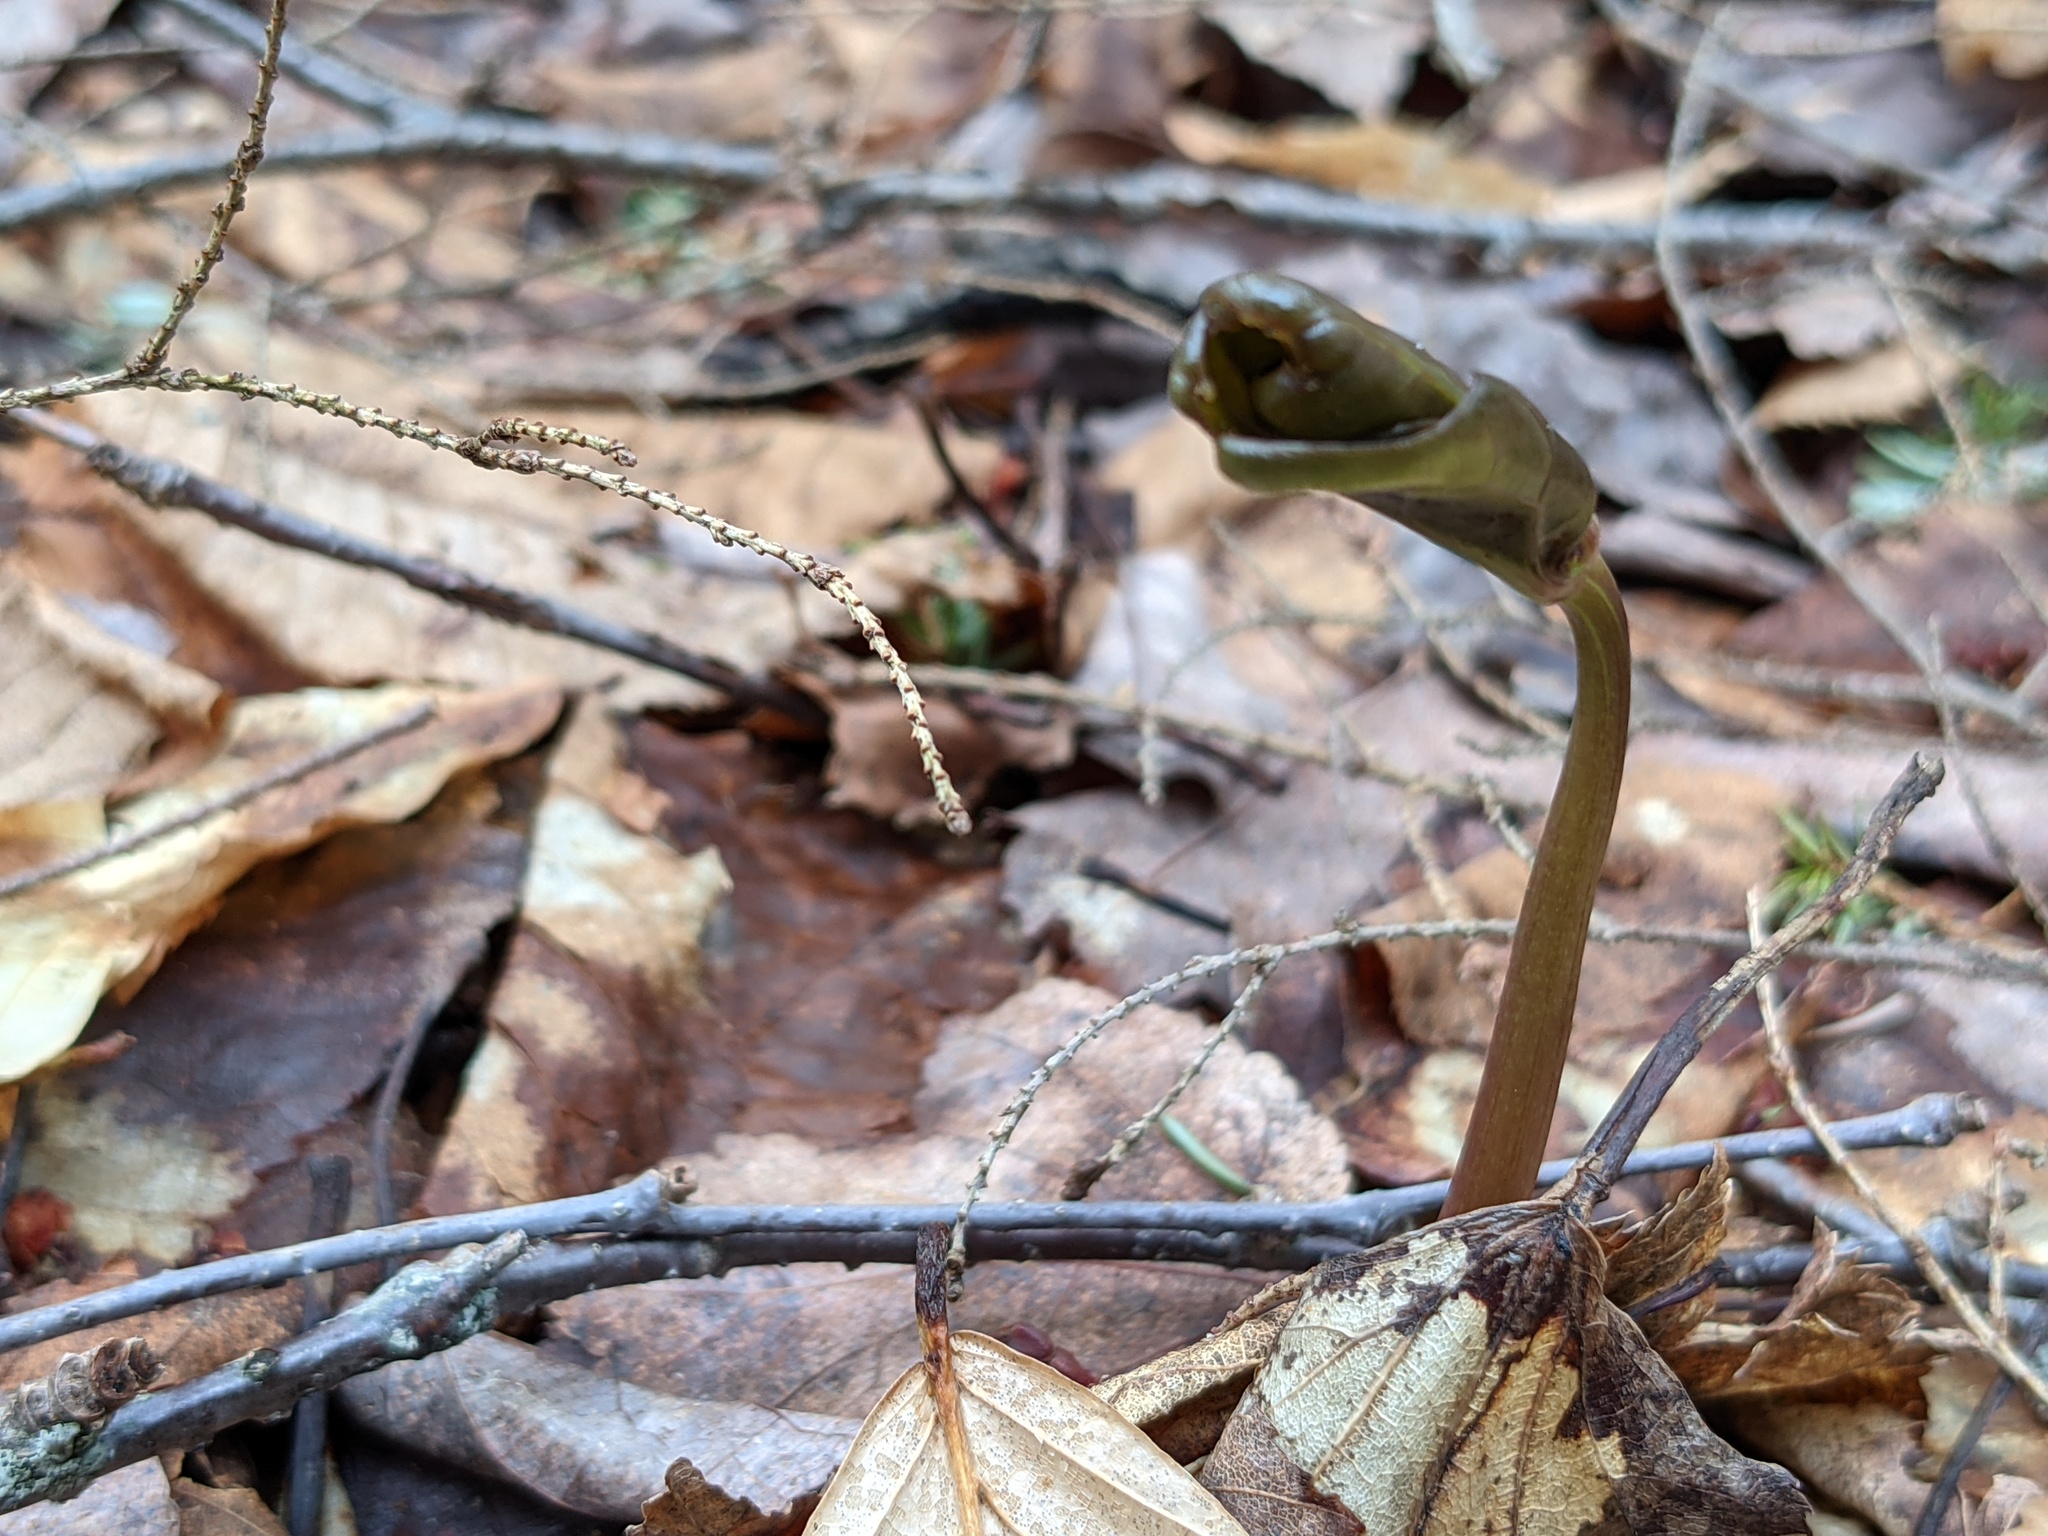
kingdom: Plantae
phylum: Tracheophyta
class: Liliopsida
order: Liliales
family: Melanthiaceae
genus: Trillium
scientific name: Trillium undulatum
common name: Paint trillium
